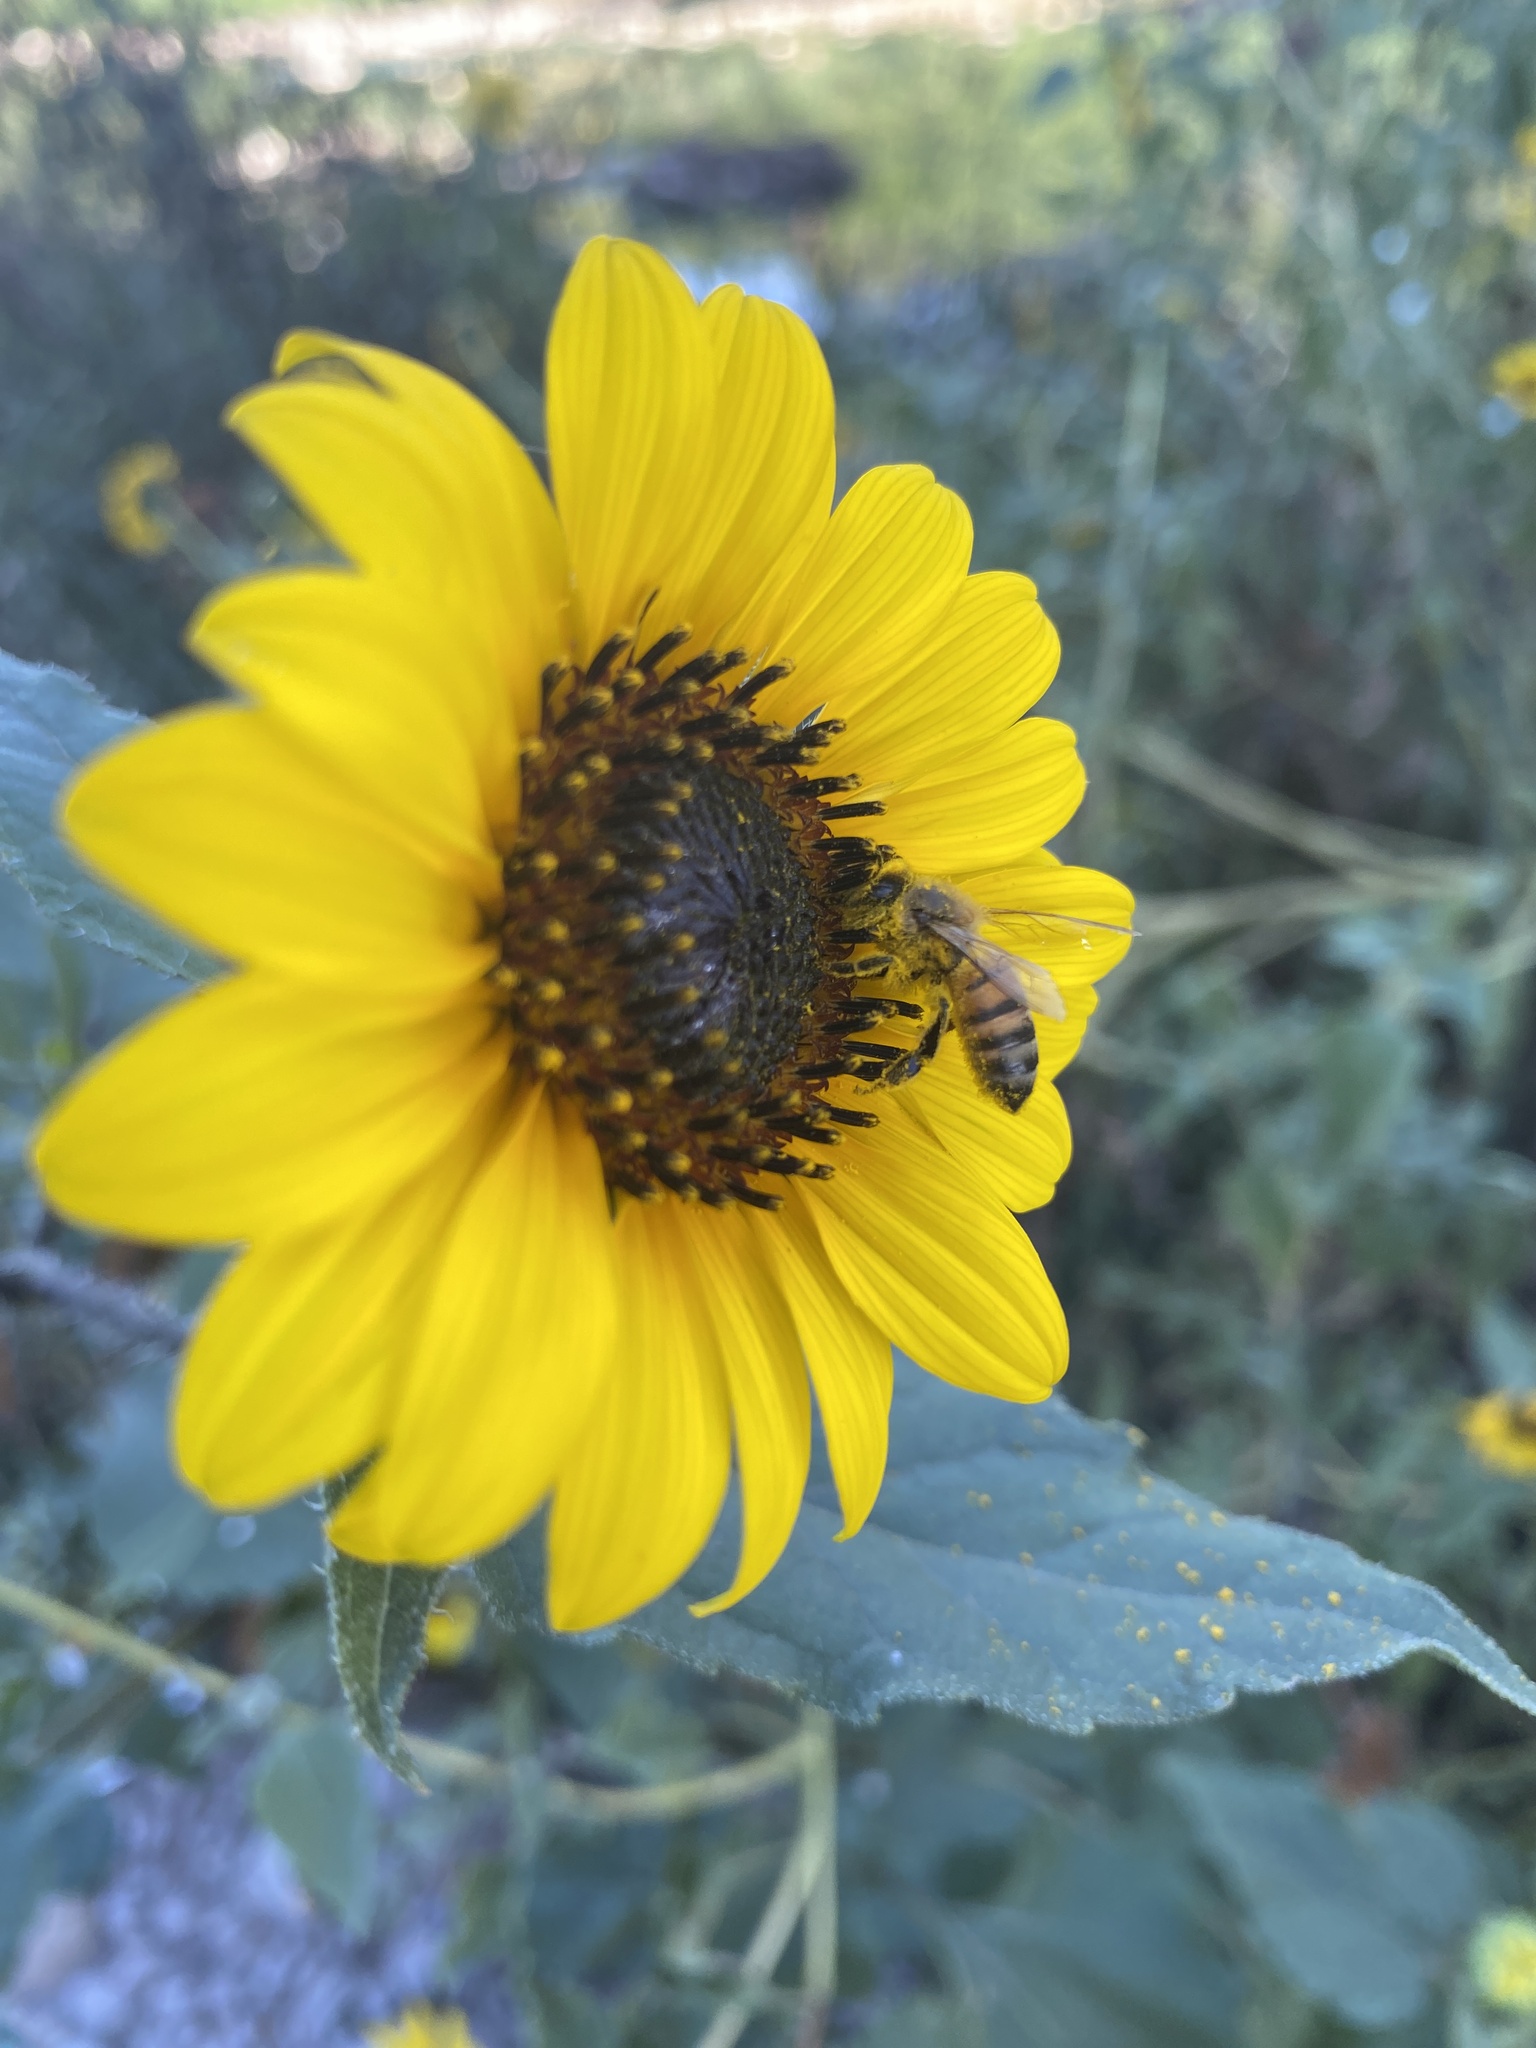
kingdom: Animalia
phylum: Arthropoda
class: Insecta
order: Hymenoptera
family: Apidae
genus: Apis
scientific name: Apis mellifera
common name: Honey bee
